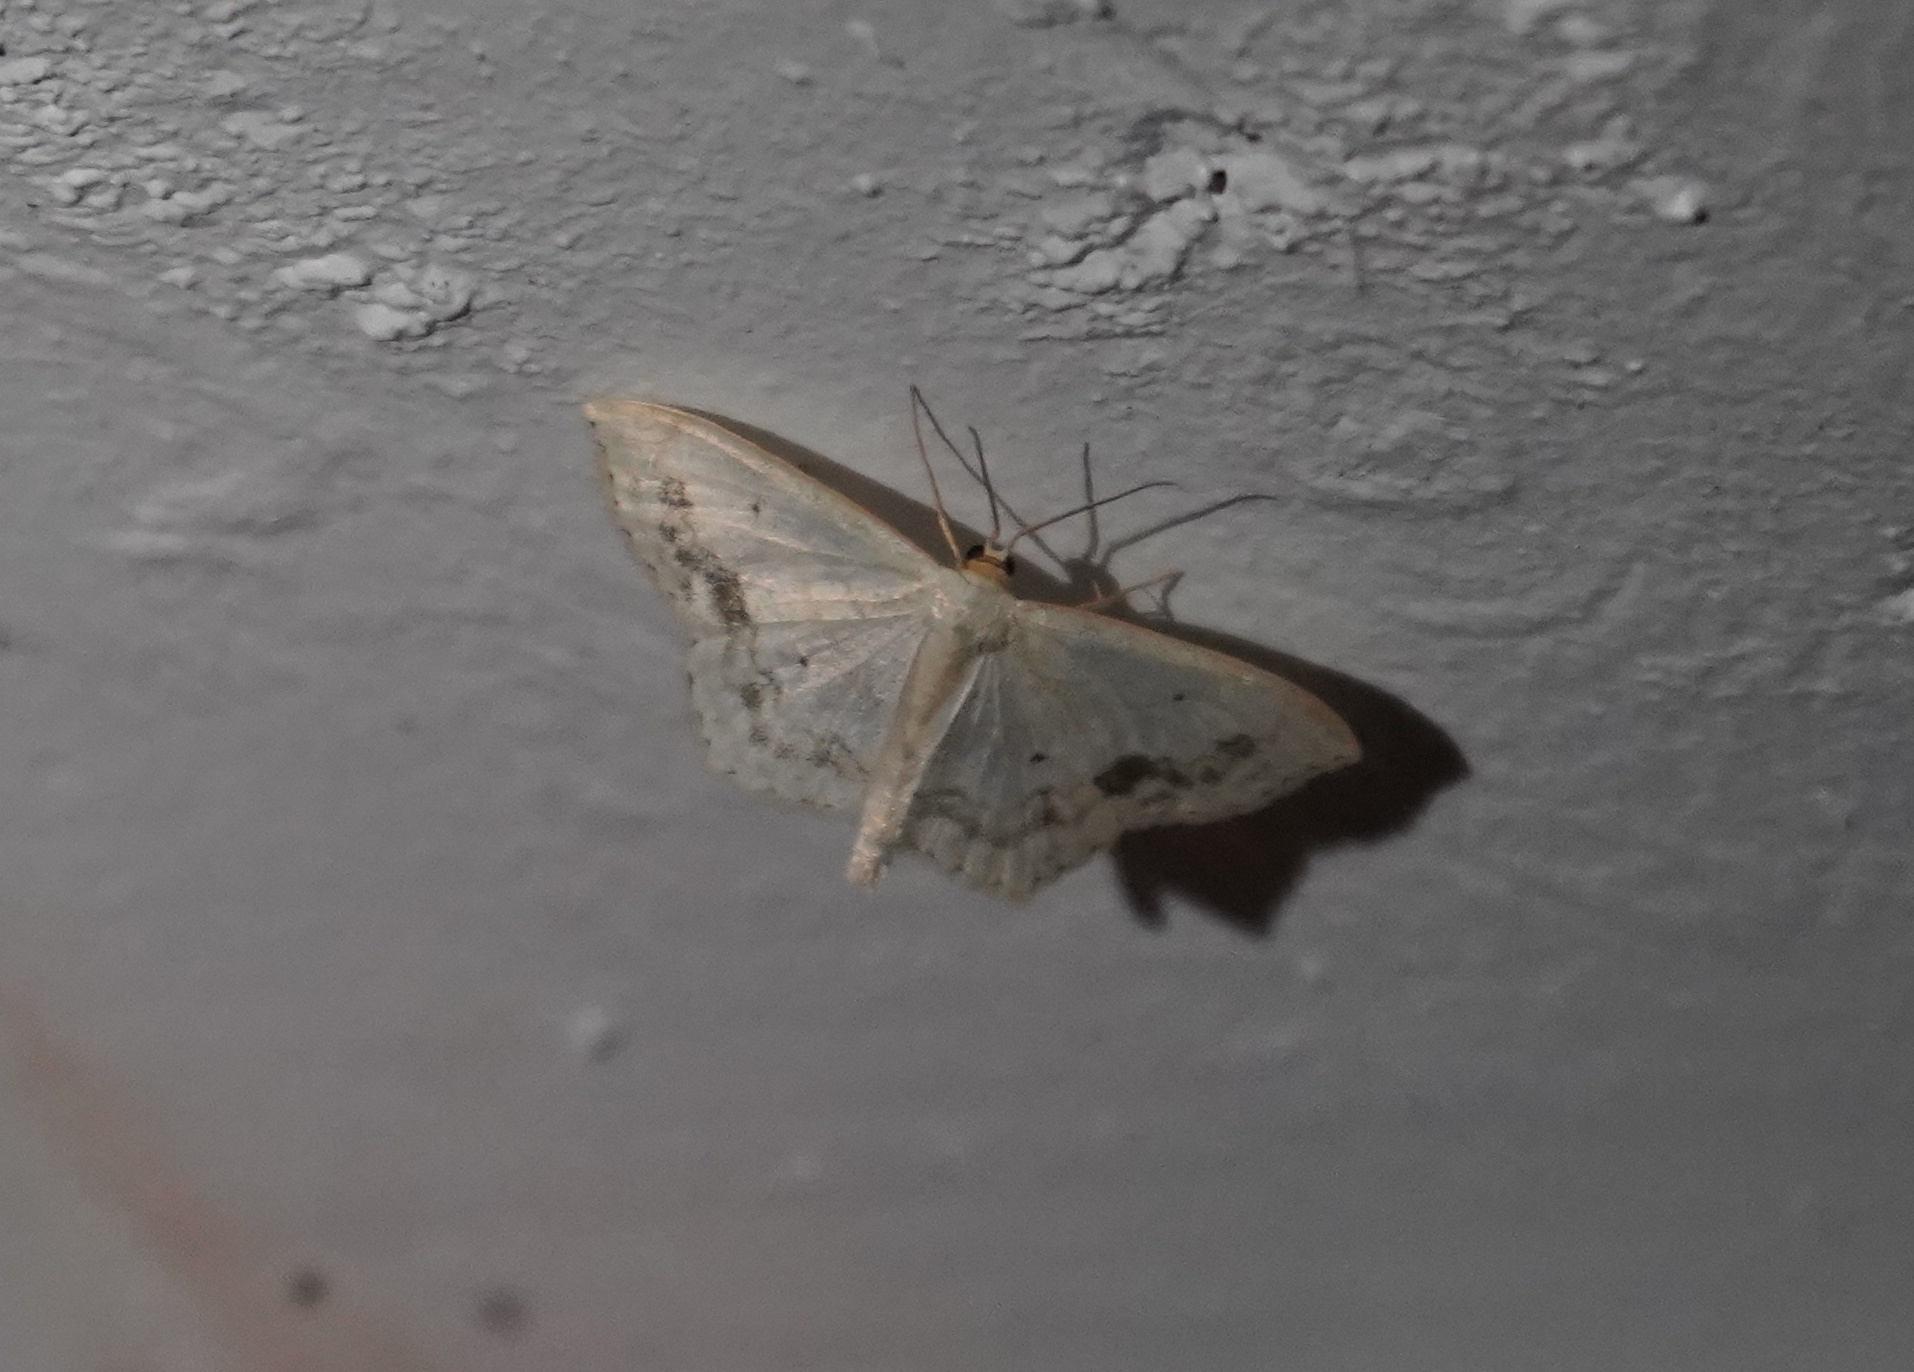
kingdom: Animalia
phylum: Arthropoda
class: Insecta
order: Lepidoptera
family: Geometridae
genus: Scopula
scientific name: Scopula limboundata
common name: Large lace border
